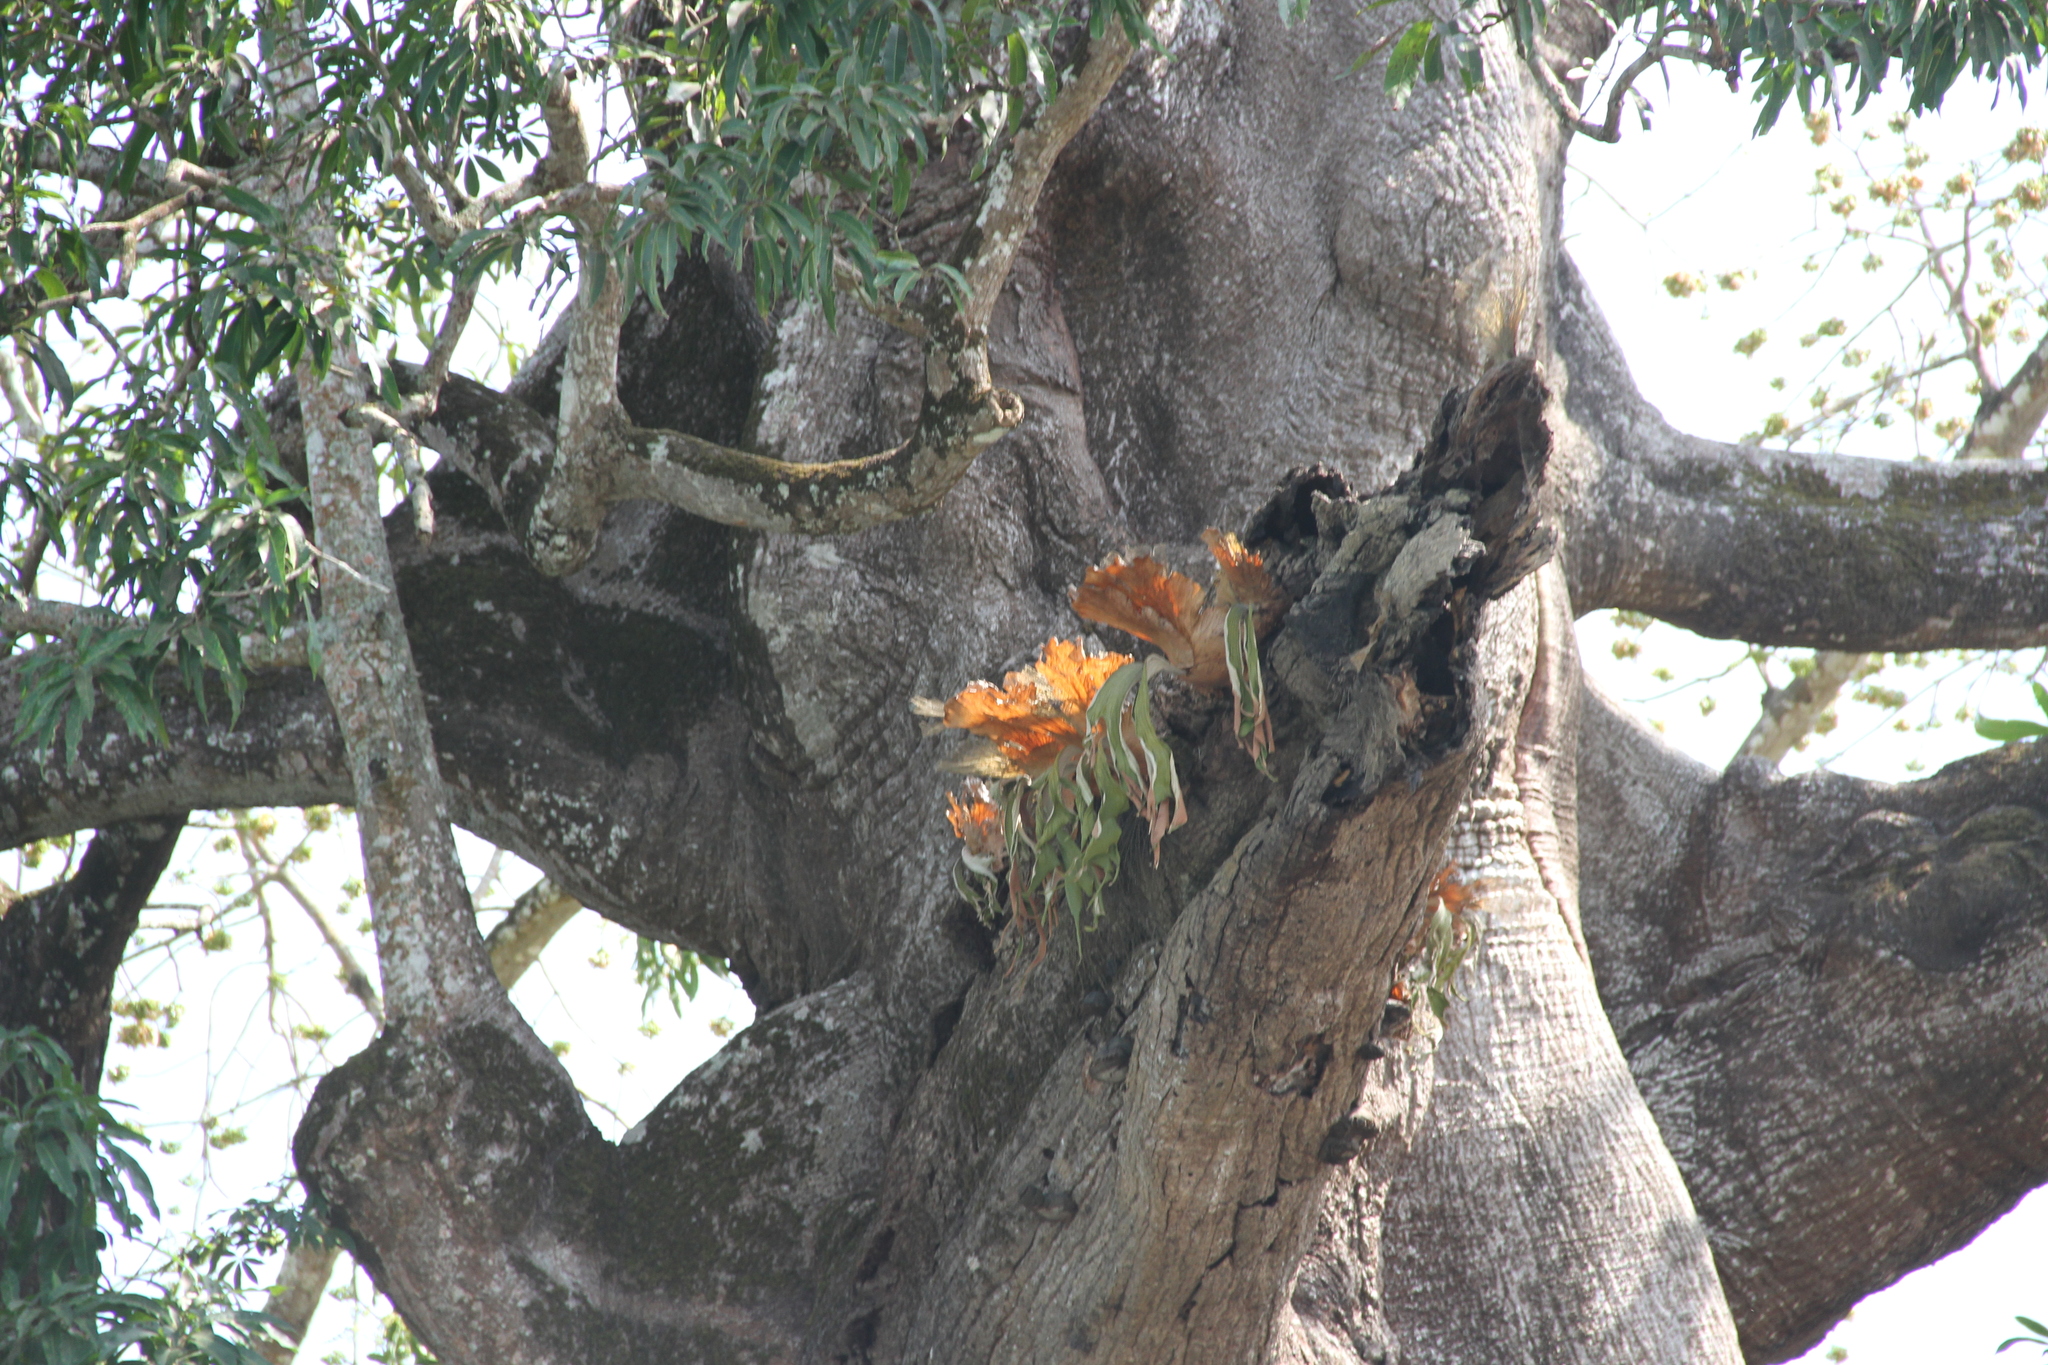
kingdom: Plantae
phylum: Tracheophyta
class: Polypodiopsida
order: Polypodiales
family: Polypodiaceae
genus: Platycerium
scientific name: Platycerium stemaria
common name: Triangular staghorn fern
